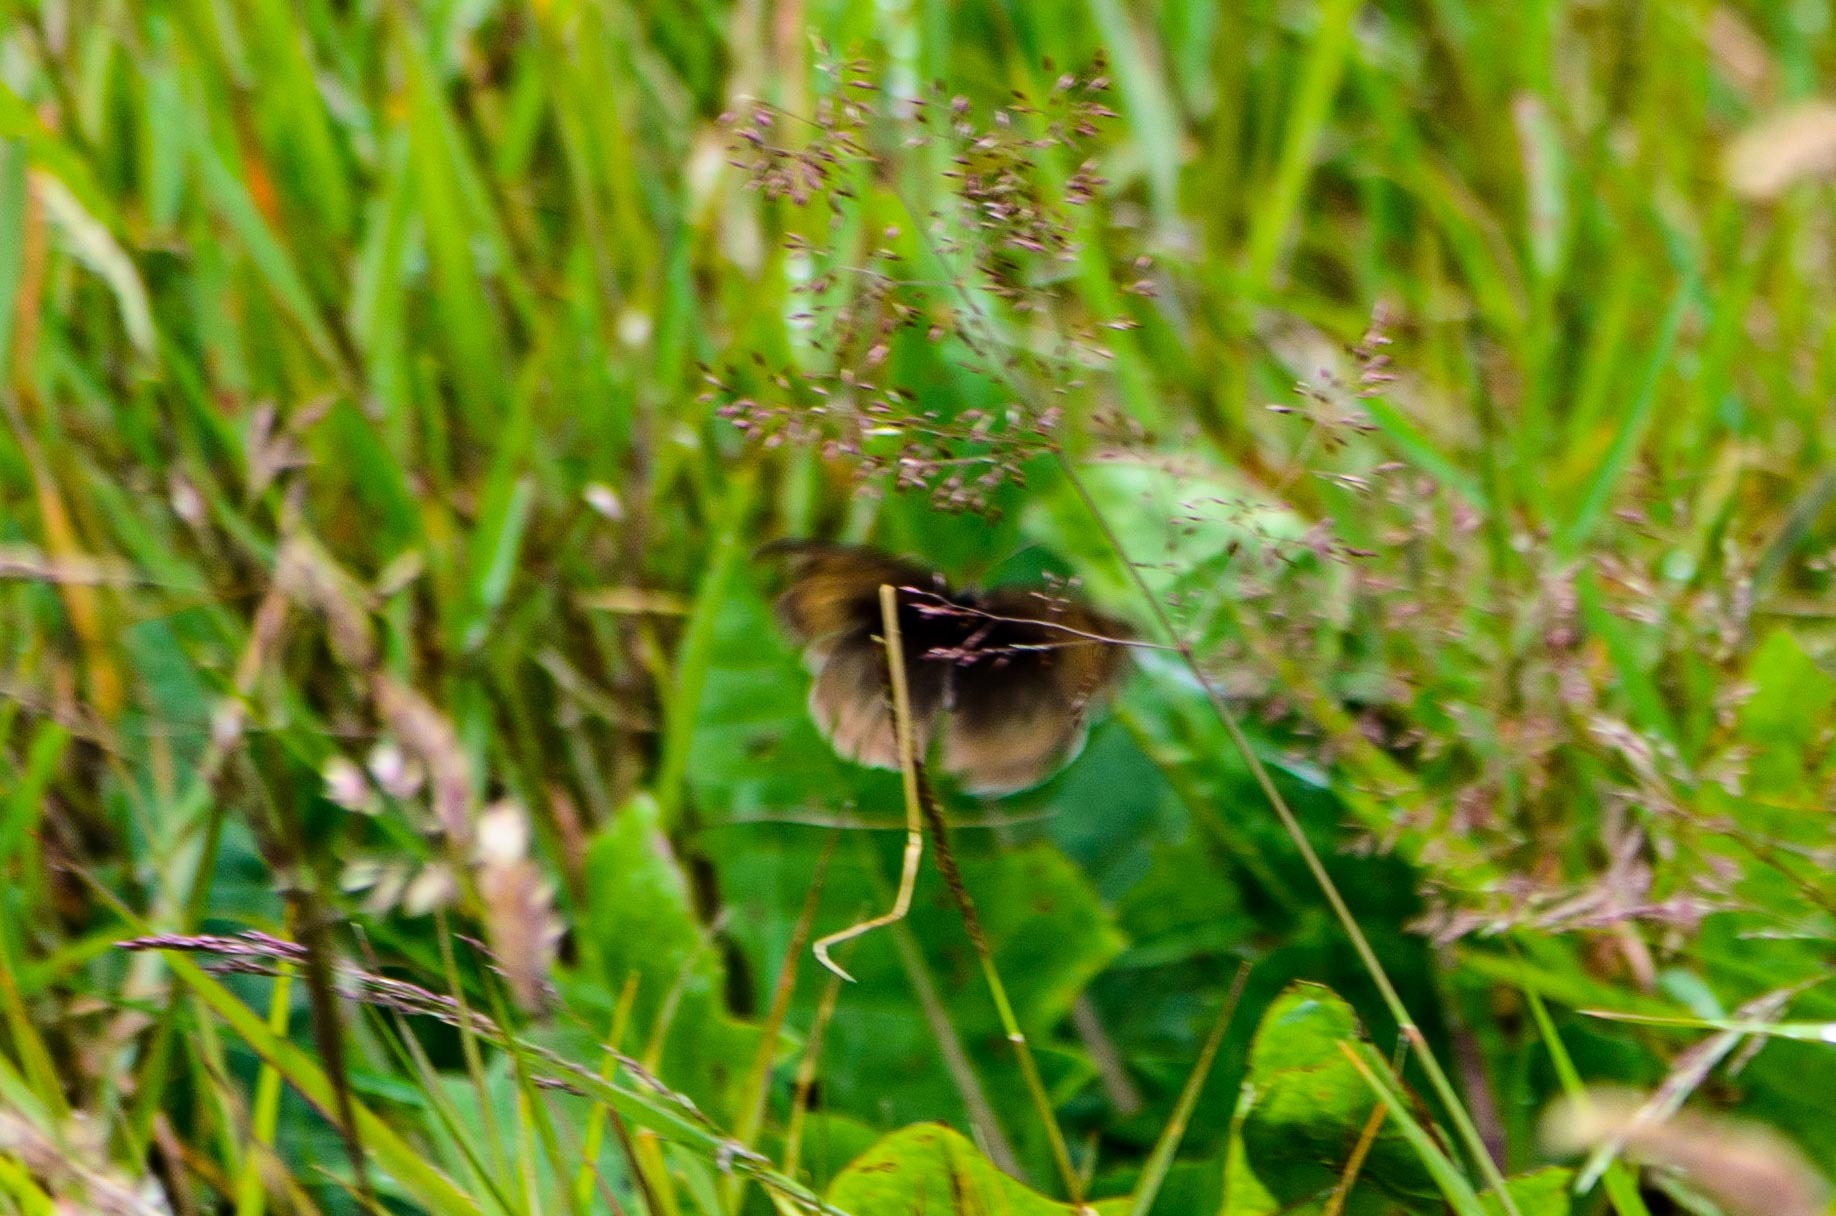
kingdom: Animalia
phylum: Arthropoda
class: Insecta
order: Lepidoptera
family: Nymphalidae
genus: Maniola
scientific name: Maniola jurtina
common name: Meadow brown
